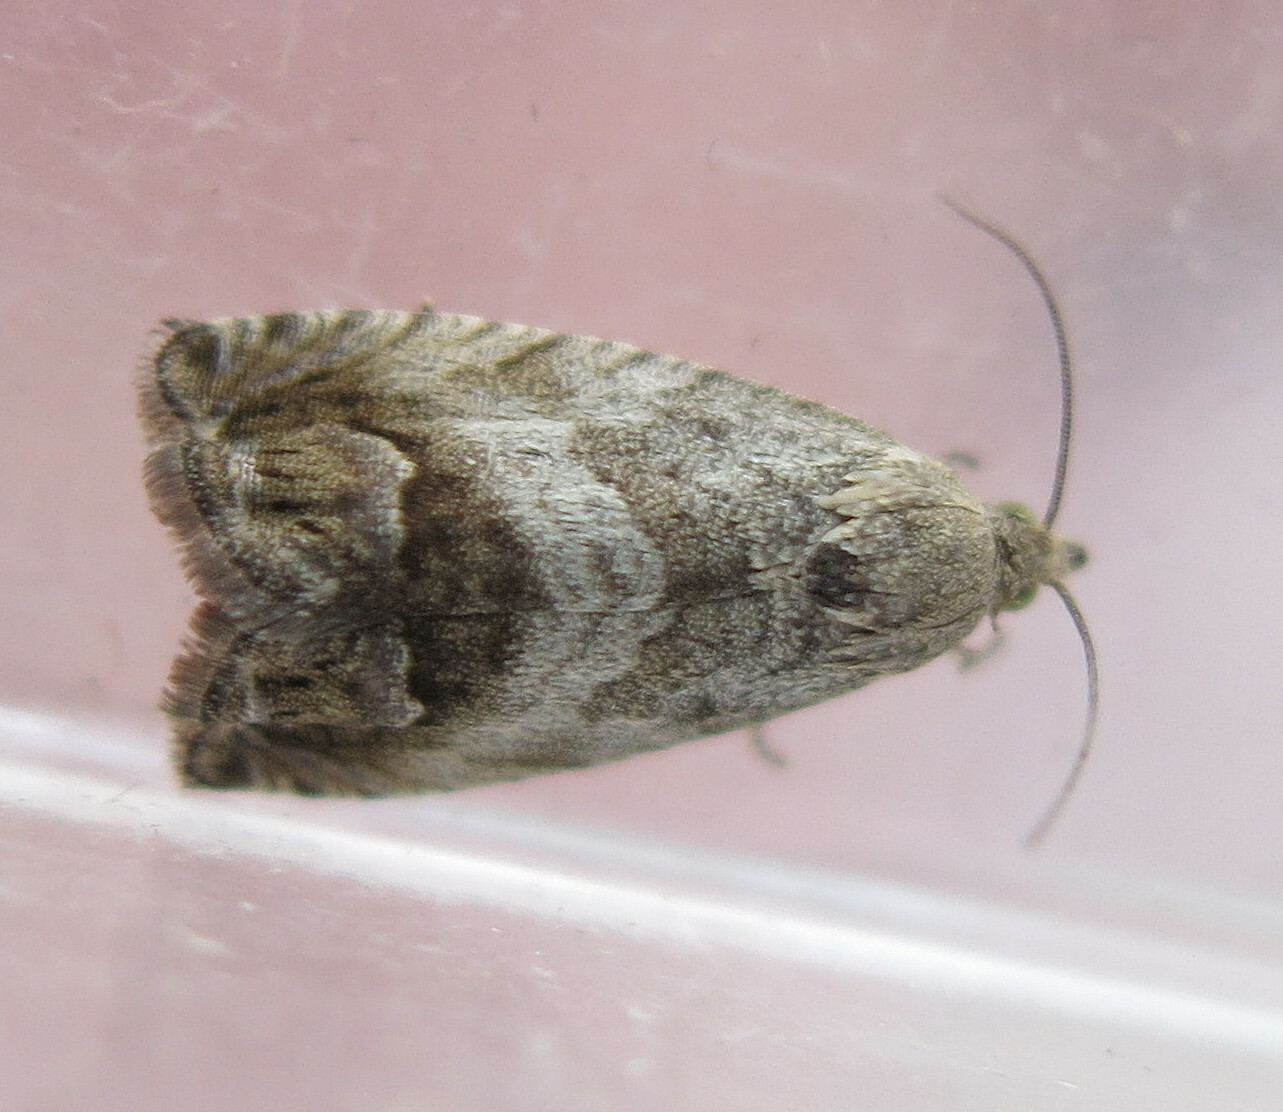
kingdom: Animalia
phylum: Arthropoda
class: Insecta
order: Lepidoptera
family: Tortricidae
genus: Cydia
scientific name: Cydia splendana
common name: De: kastanienwickler, eichenwickler es: oruga de la castaña fr: carpocapse des châtaignes it: cidia o tortrice tardiva delle castagne pt: bichado das castanhas gb: acorn moth, chestnut fruit tortrix
